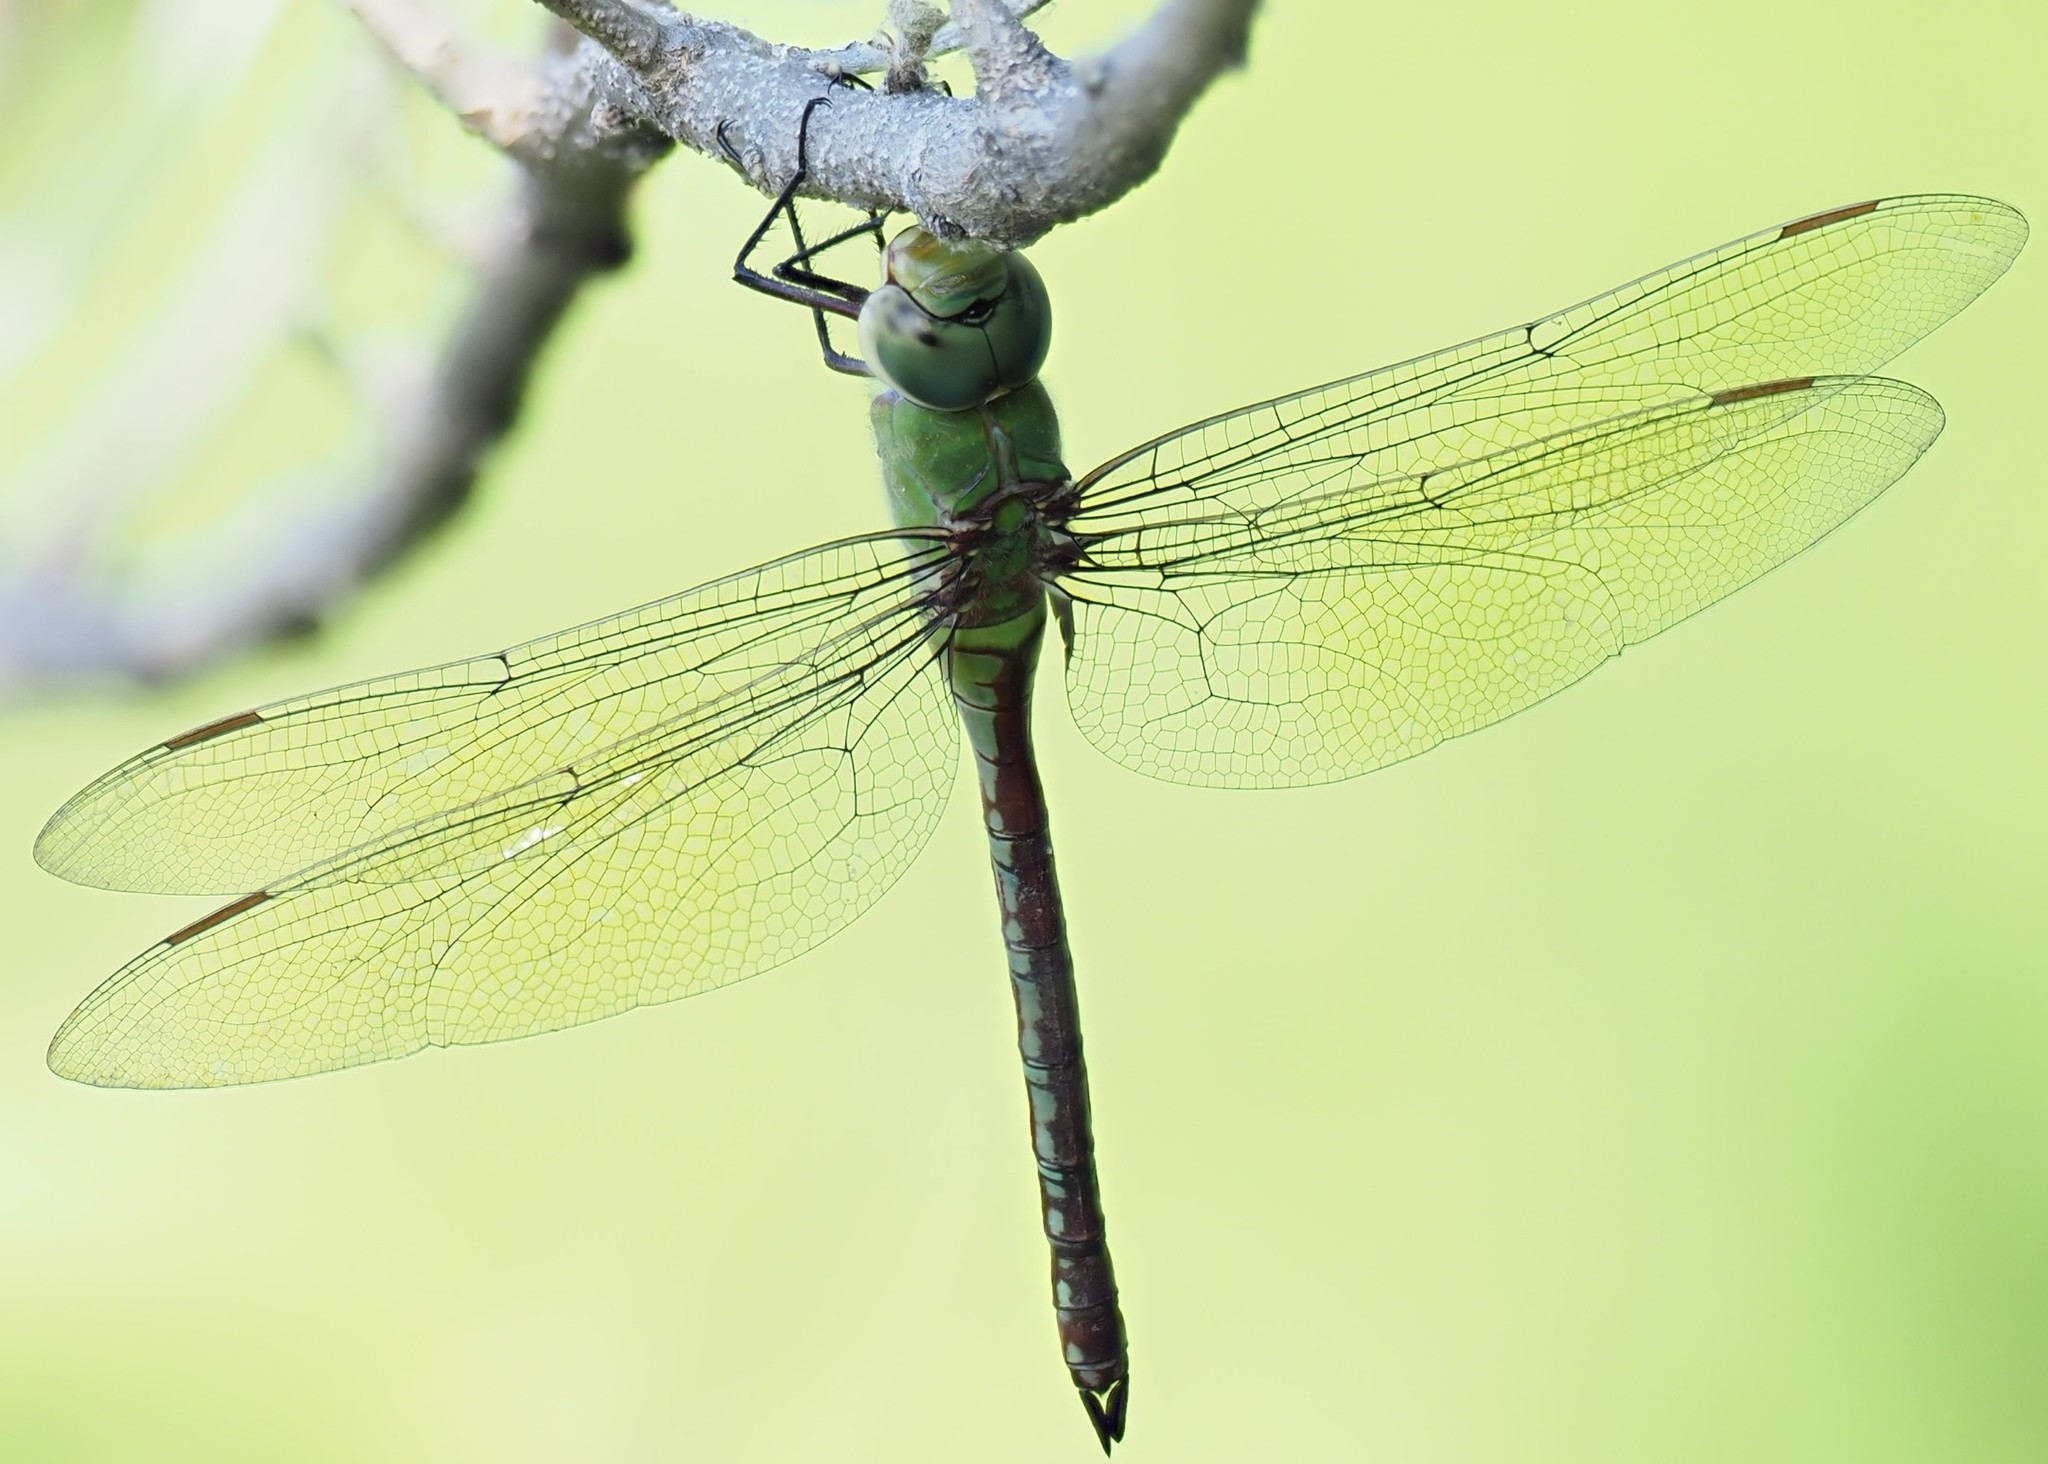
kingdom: Animalia
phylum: Arthropoda
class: Insecta
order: Odonata
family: Aeshnidae
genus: Anax
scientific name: Anax imperator
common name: Emperor dragonfly
